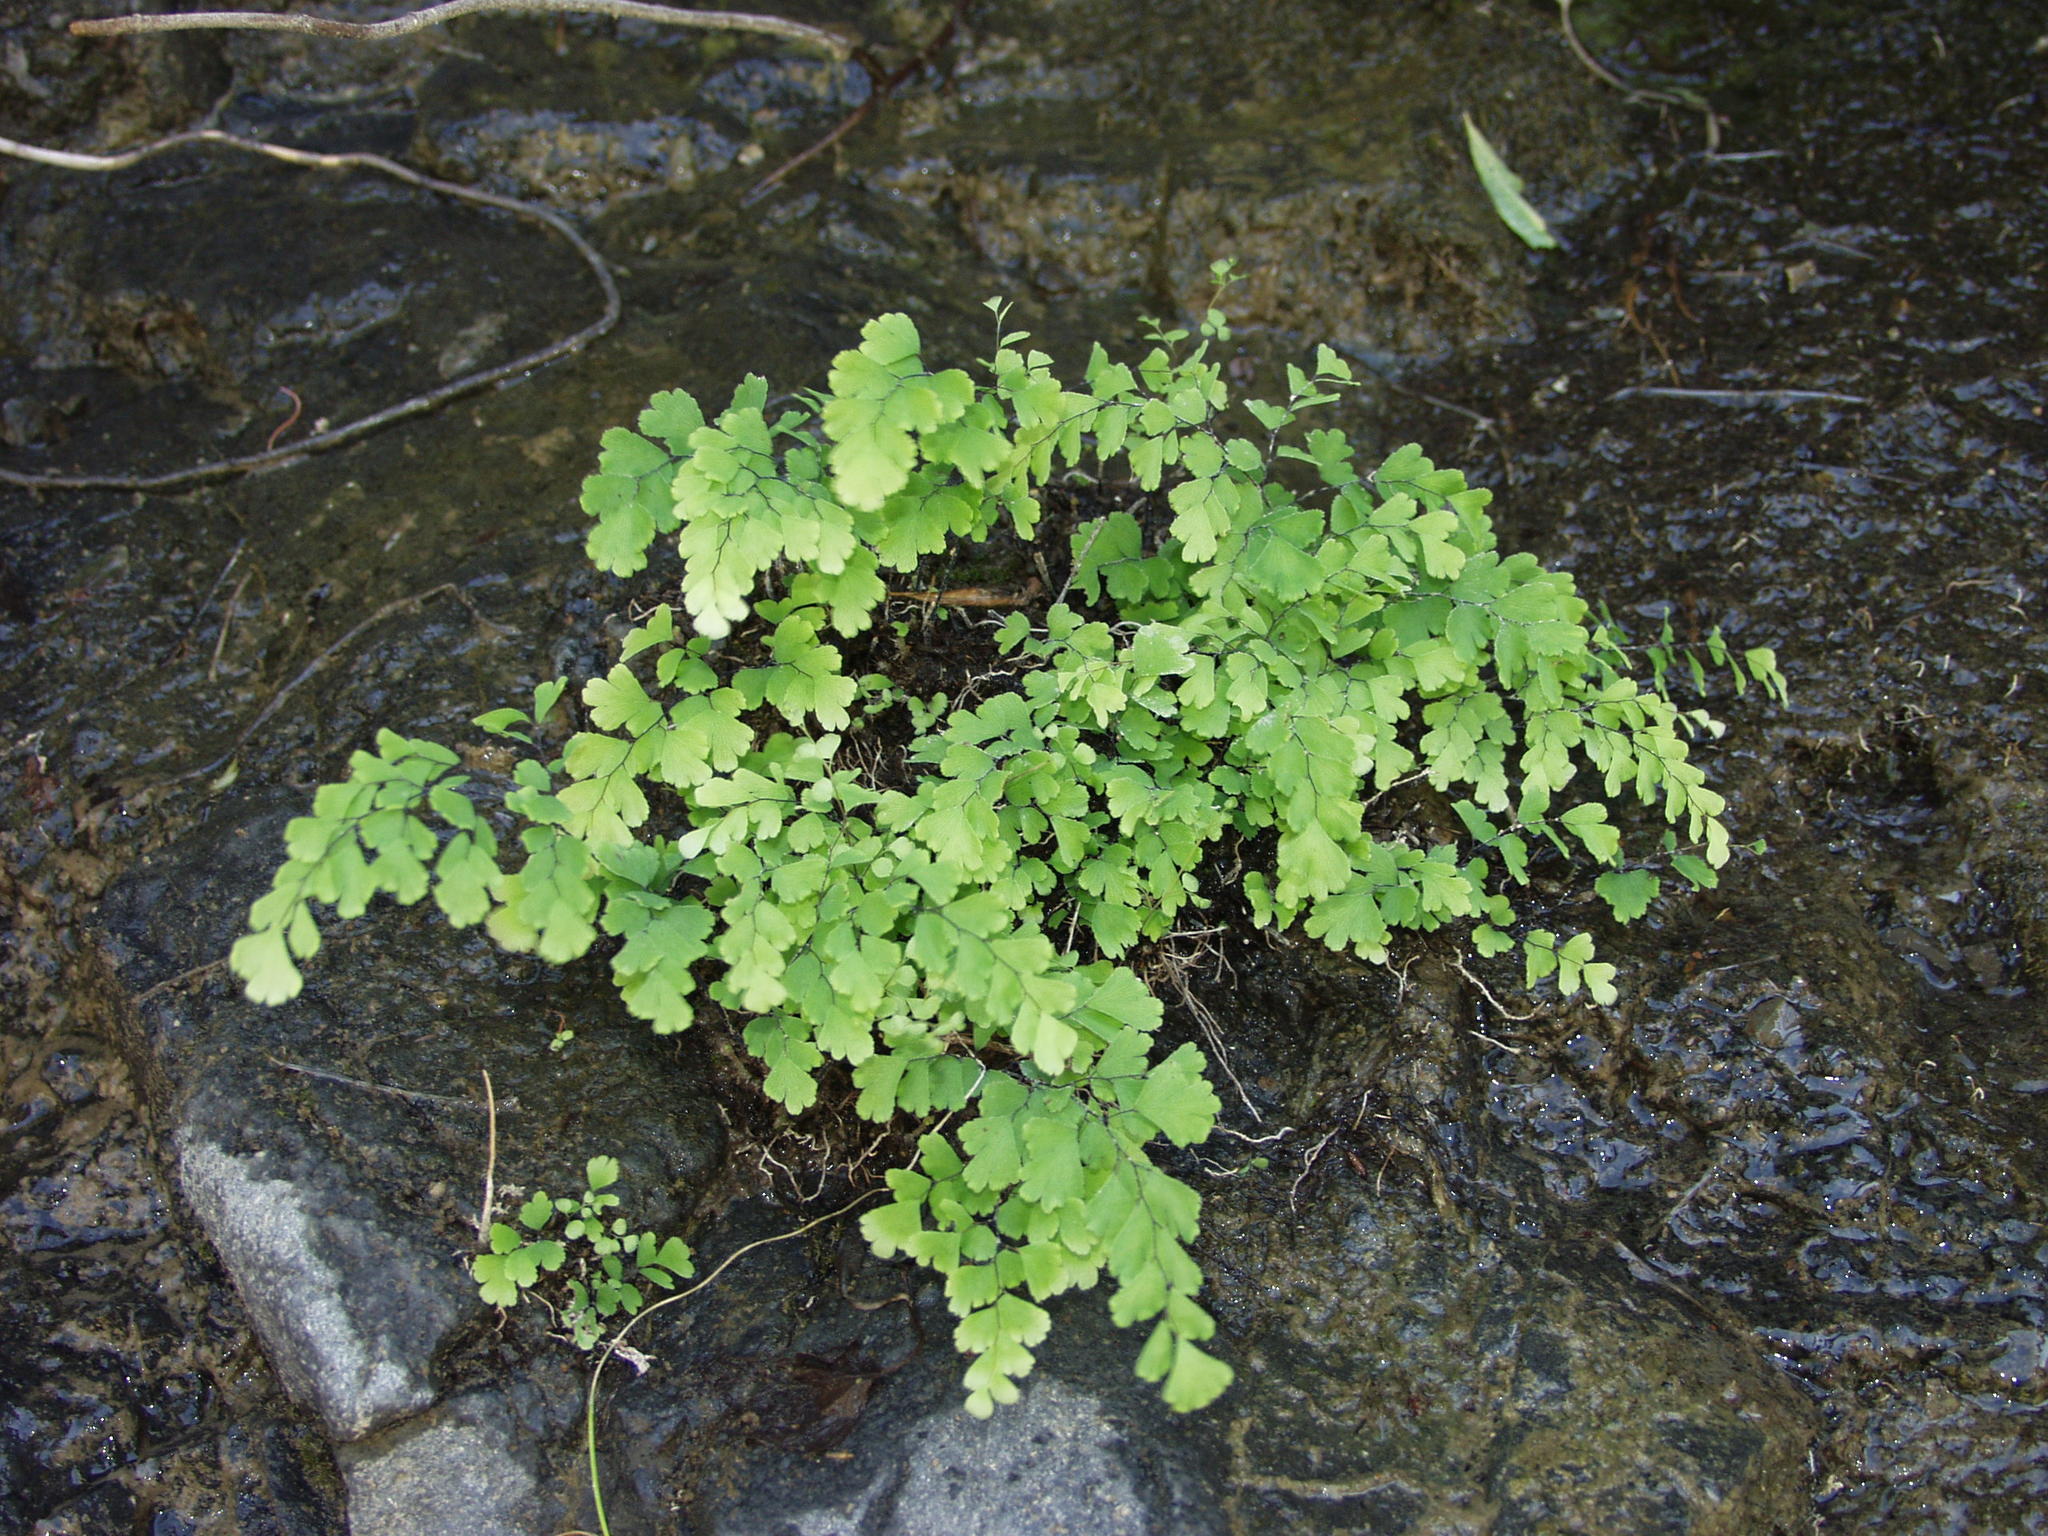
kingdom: Plantae
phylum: Tracheophyta
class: Polypodiopsida
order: Polypodiales
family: Pteridaceae
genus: Adiantum
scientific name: Adiantum capillus-veneris
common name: Maidenhair fern
